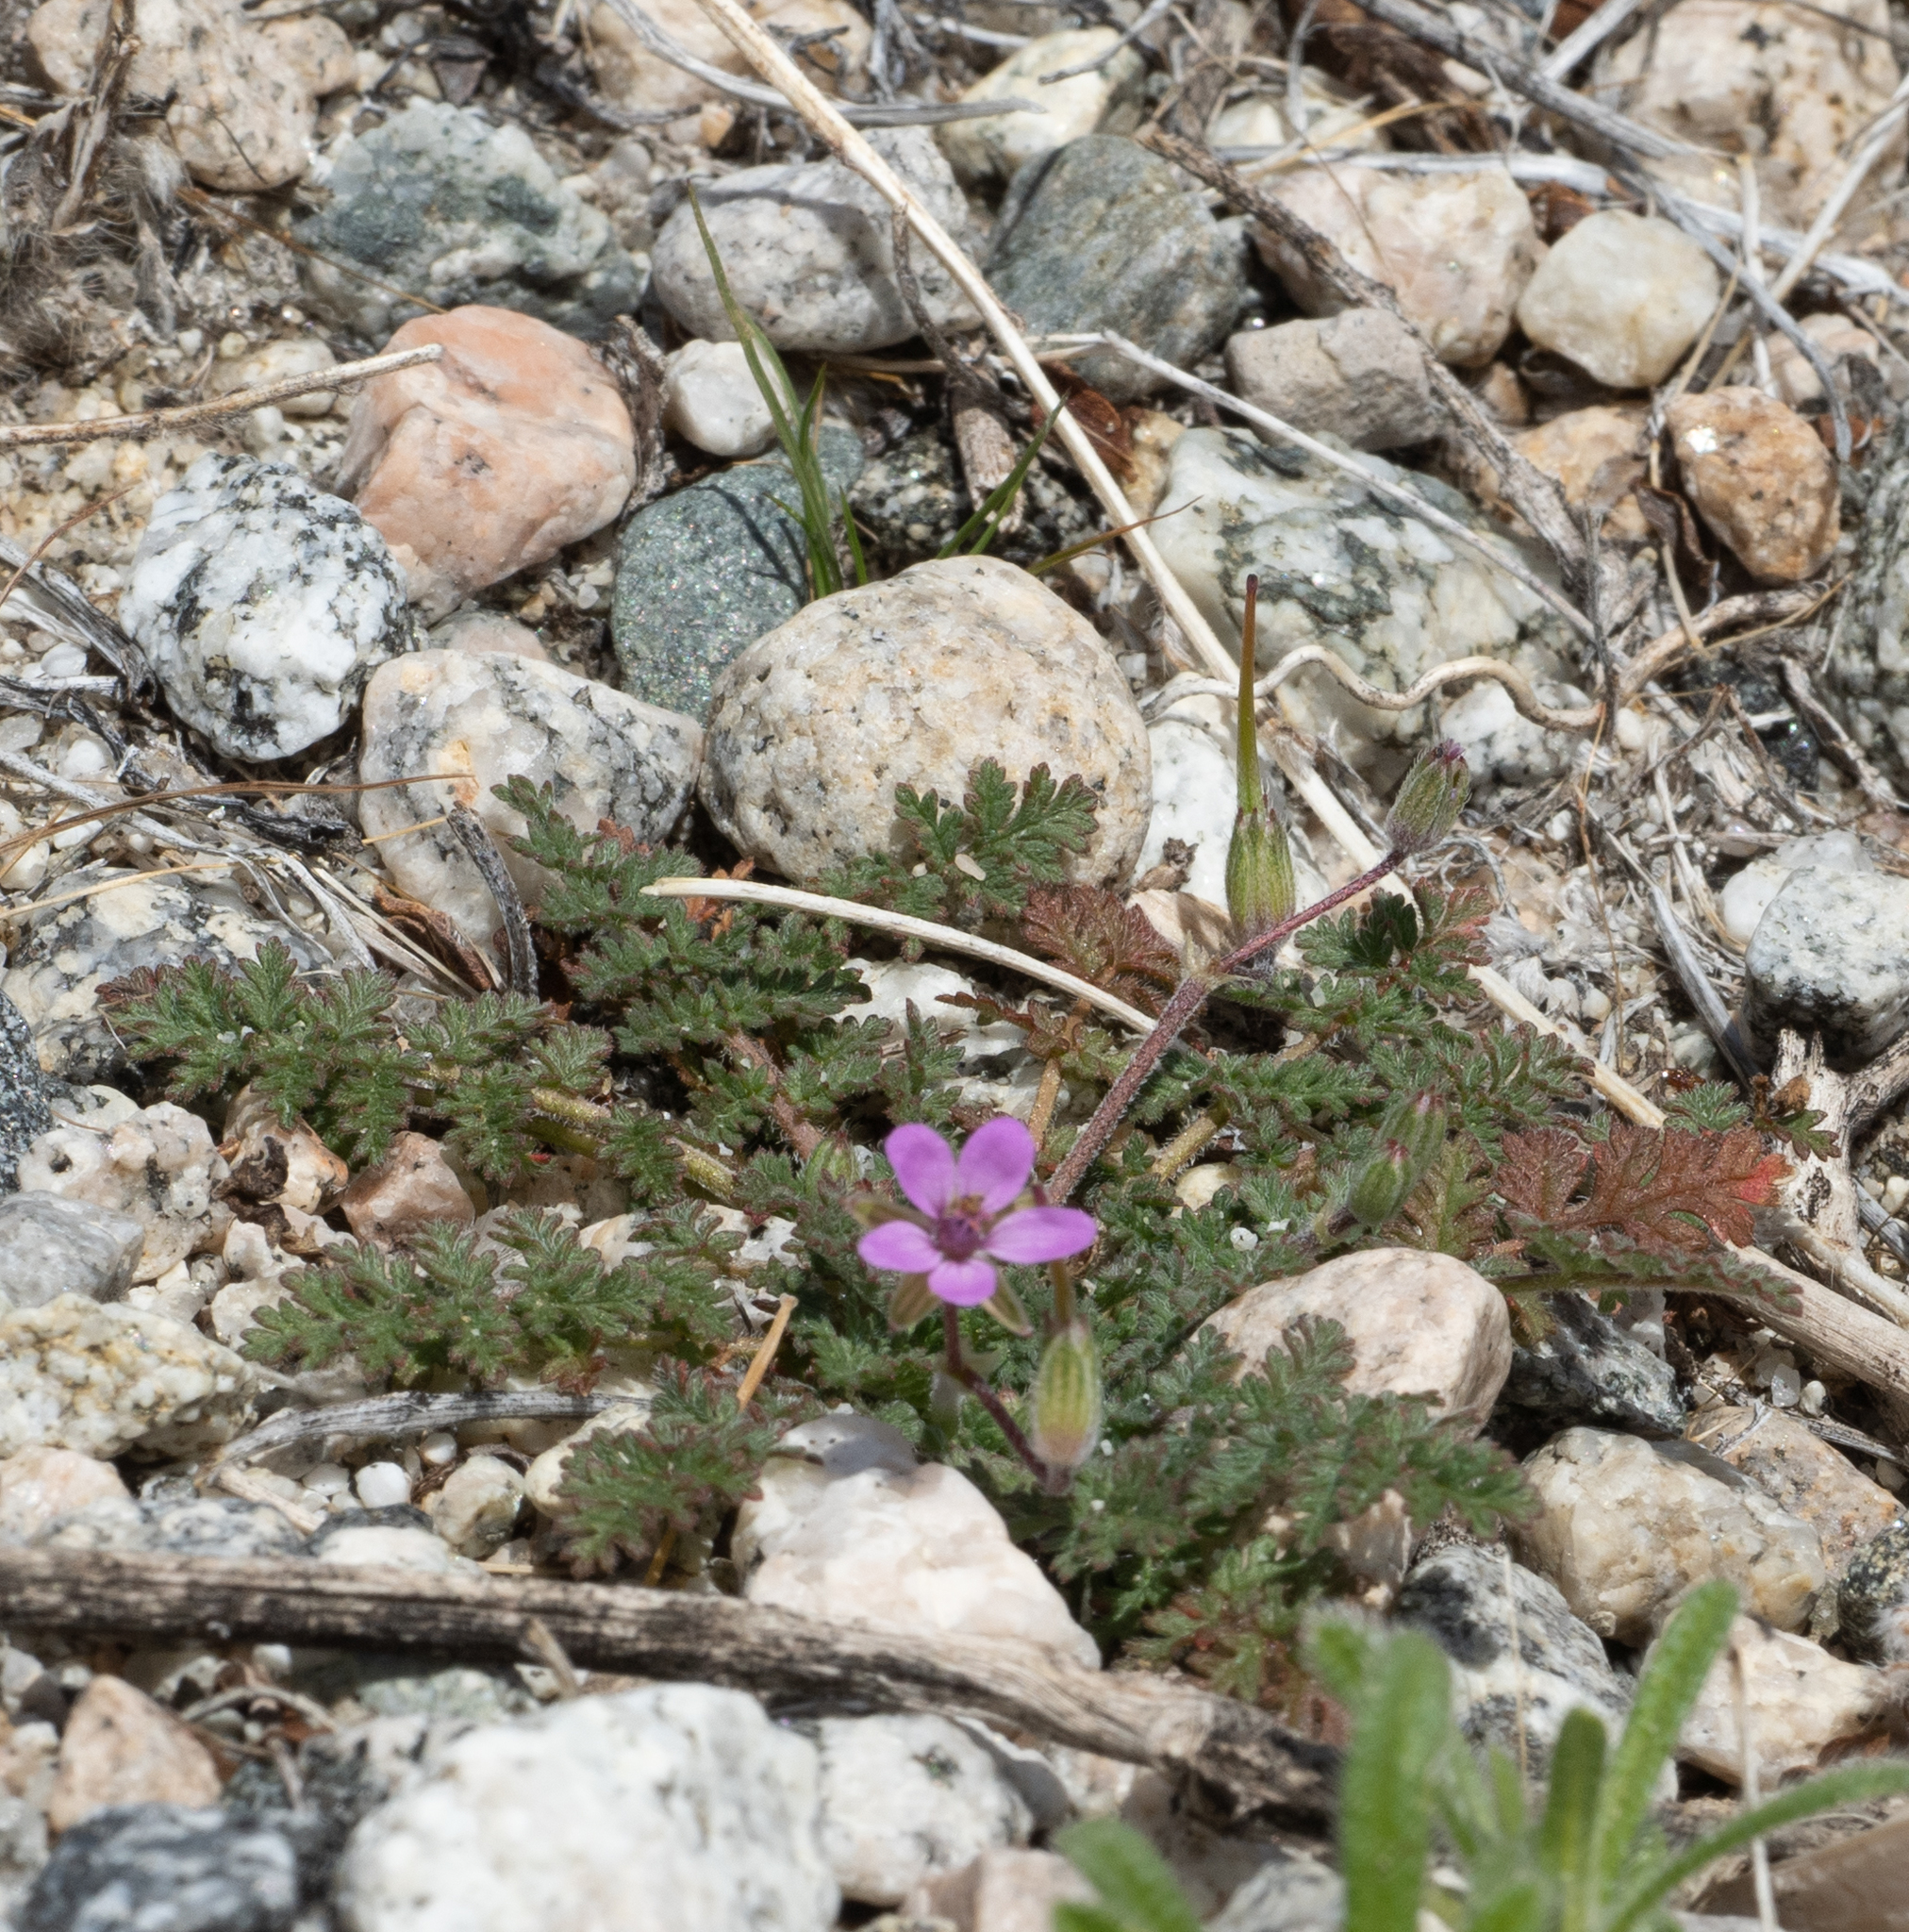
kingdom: Plantae
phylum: Tracheophyta
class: Magnoliopsida
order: Geraniales
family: Geraniaceae
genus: Erodium
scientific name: Erodium cicutarium
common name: Common stork's-bill
